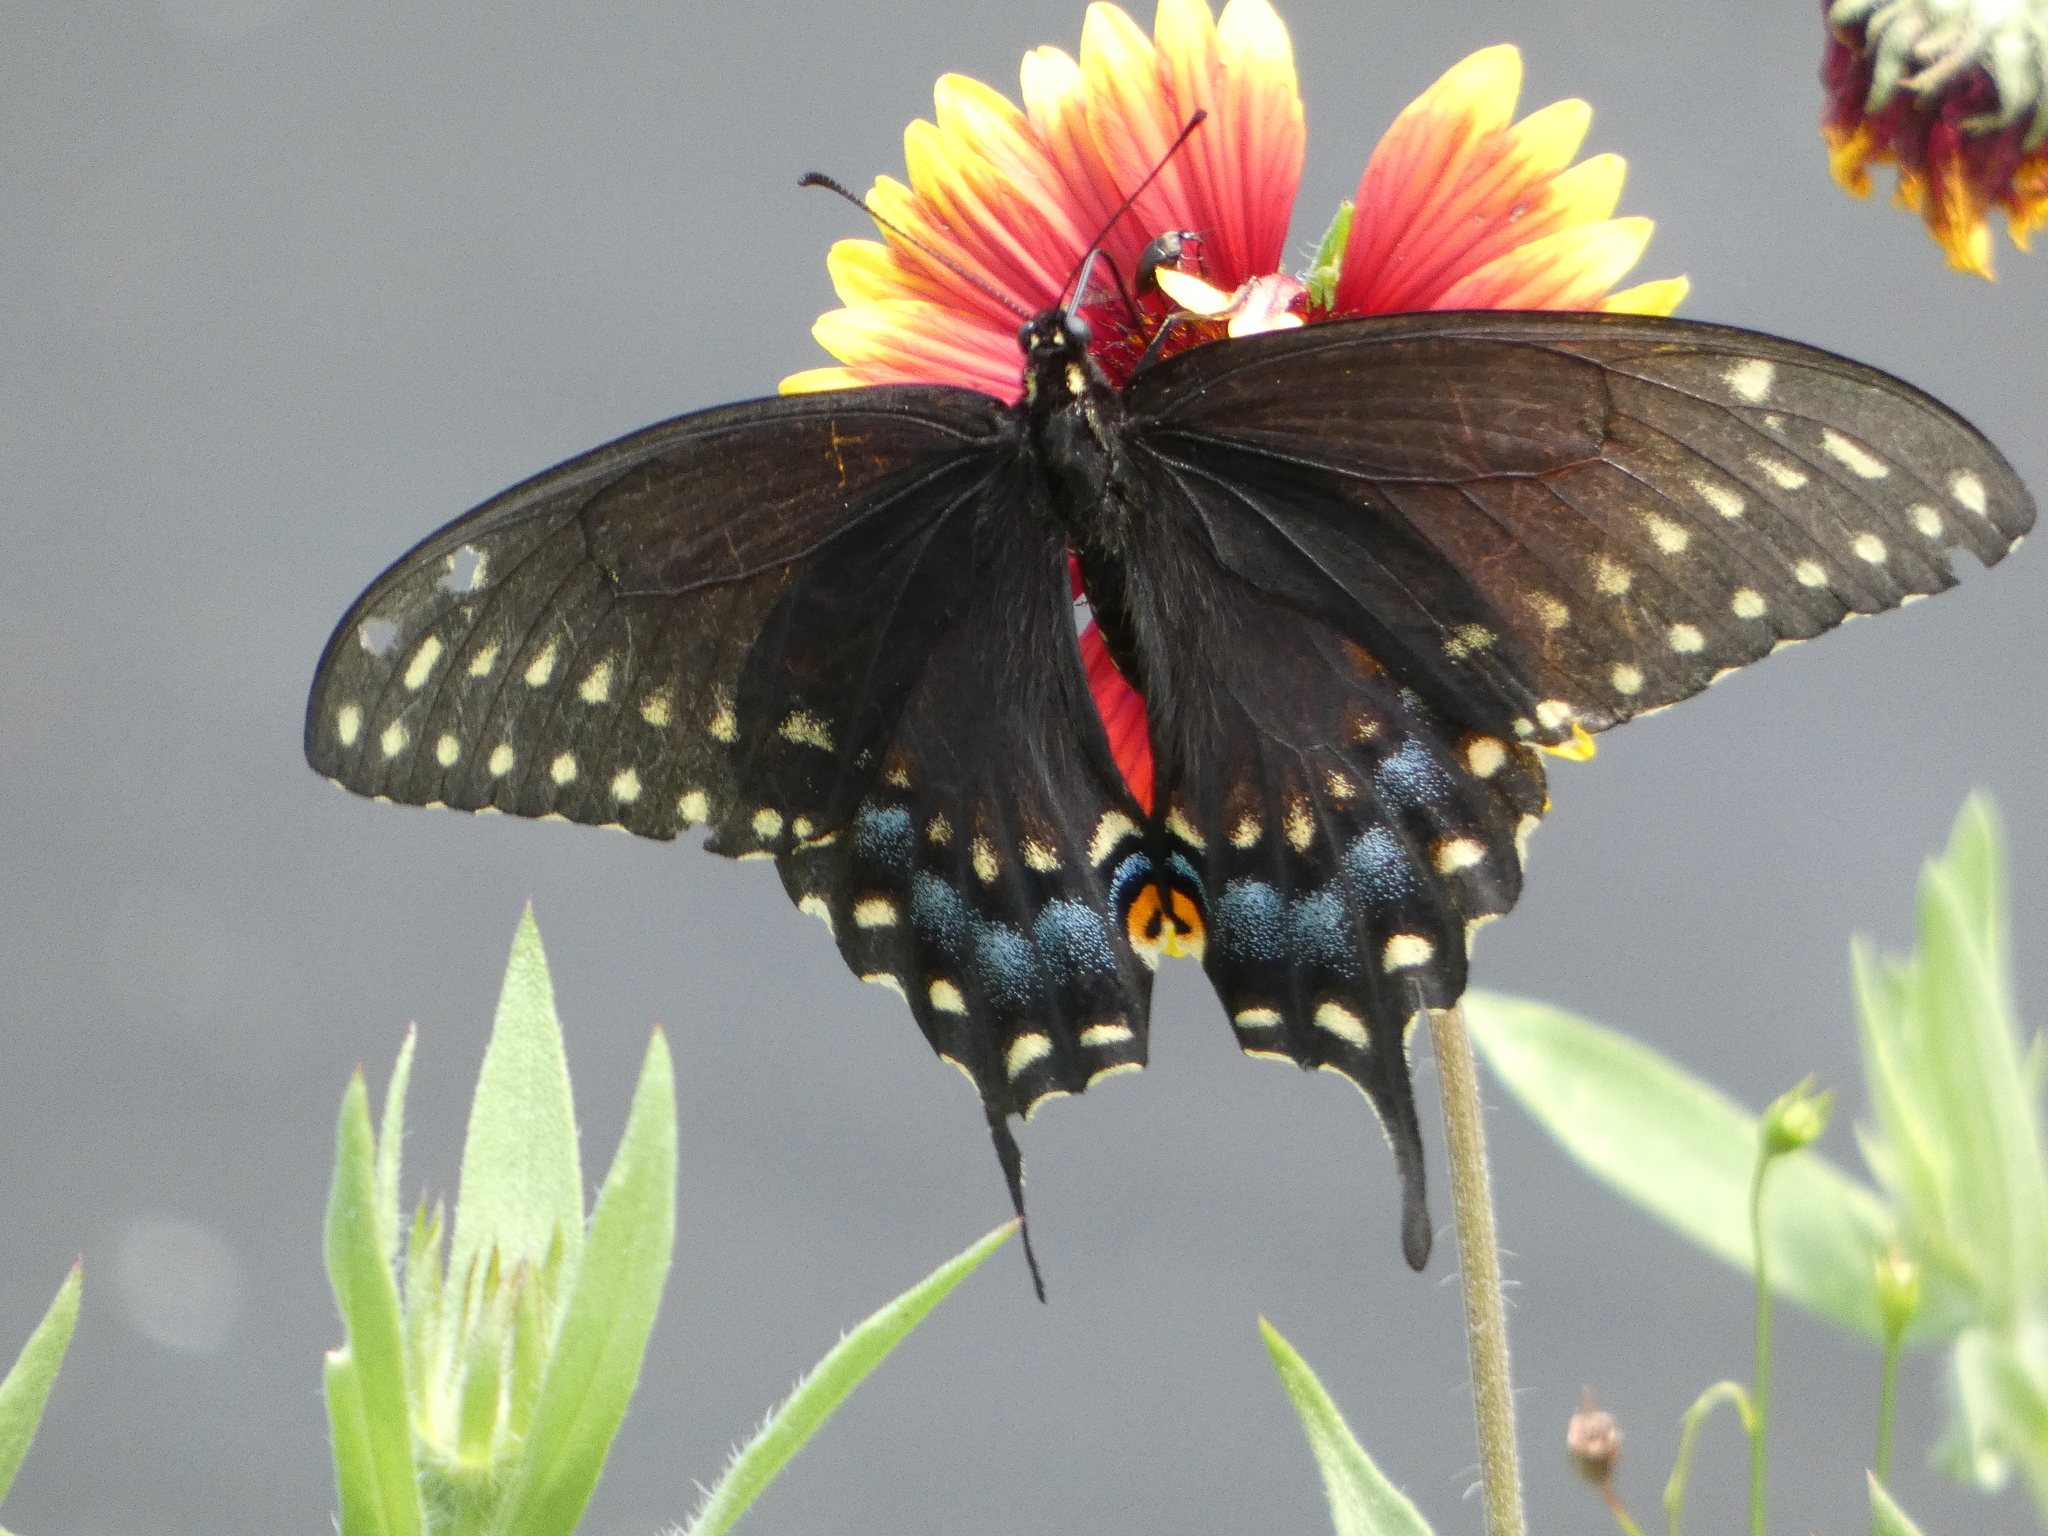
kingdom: Animalia
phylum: Arthropoda
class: Insecta
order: Lepidoptera
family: Papilionidae
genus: Papilio
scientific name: Papilio polyxenes
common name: Black swallowtail
